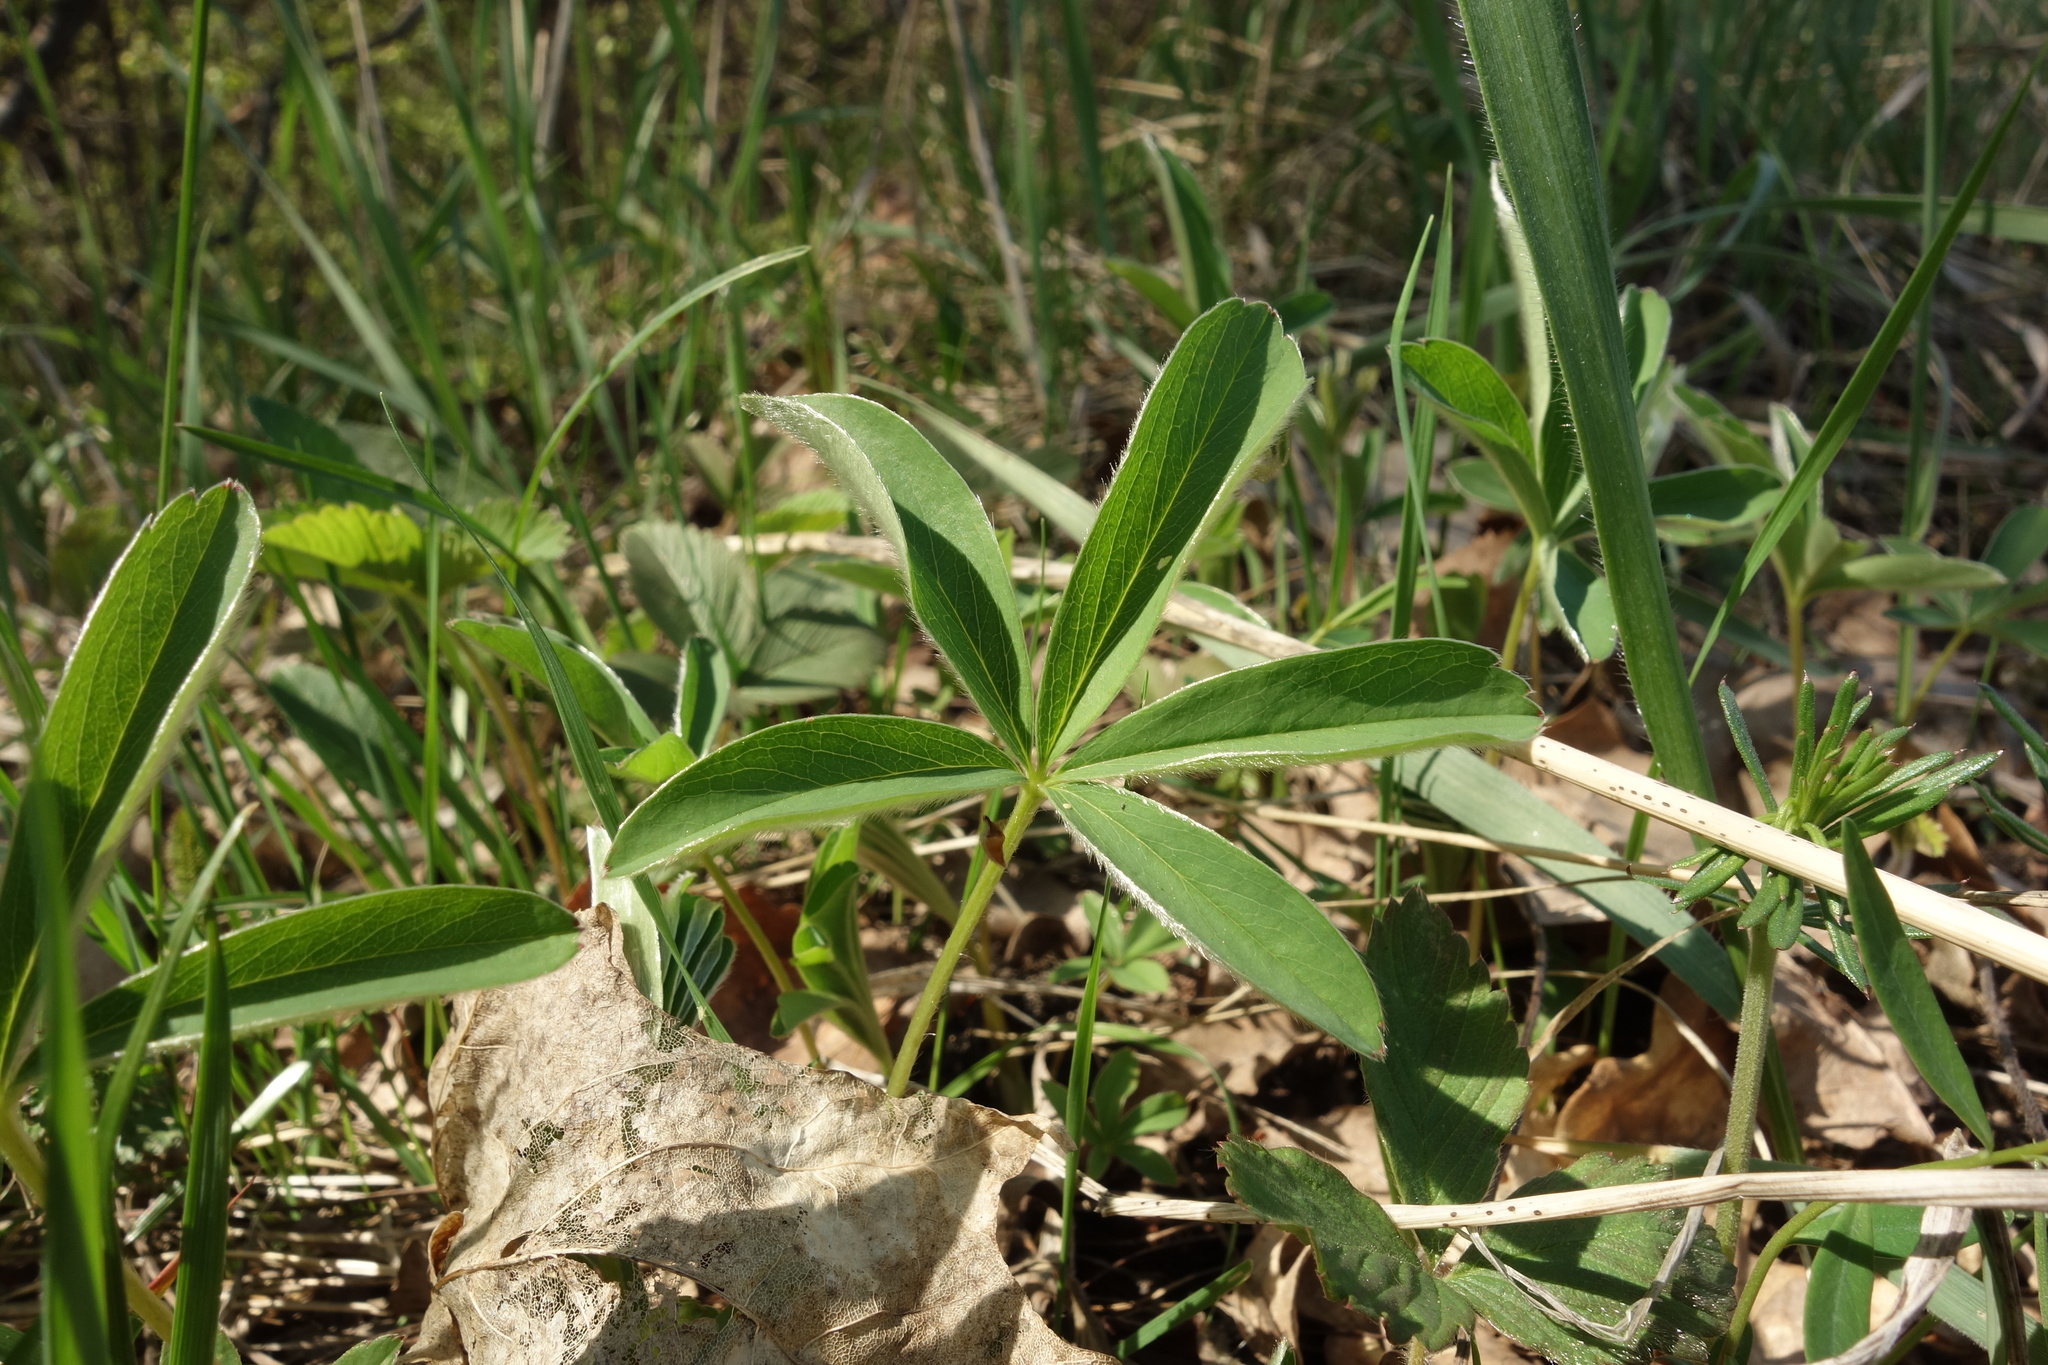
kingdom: Plantae
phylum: Tracheophyta
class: Magnoliopsida
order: Rosales
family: Rosaceae
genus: Potentilla
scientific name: Potentilla alba
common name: White cinquefoil
